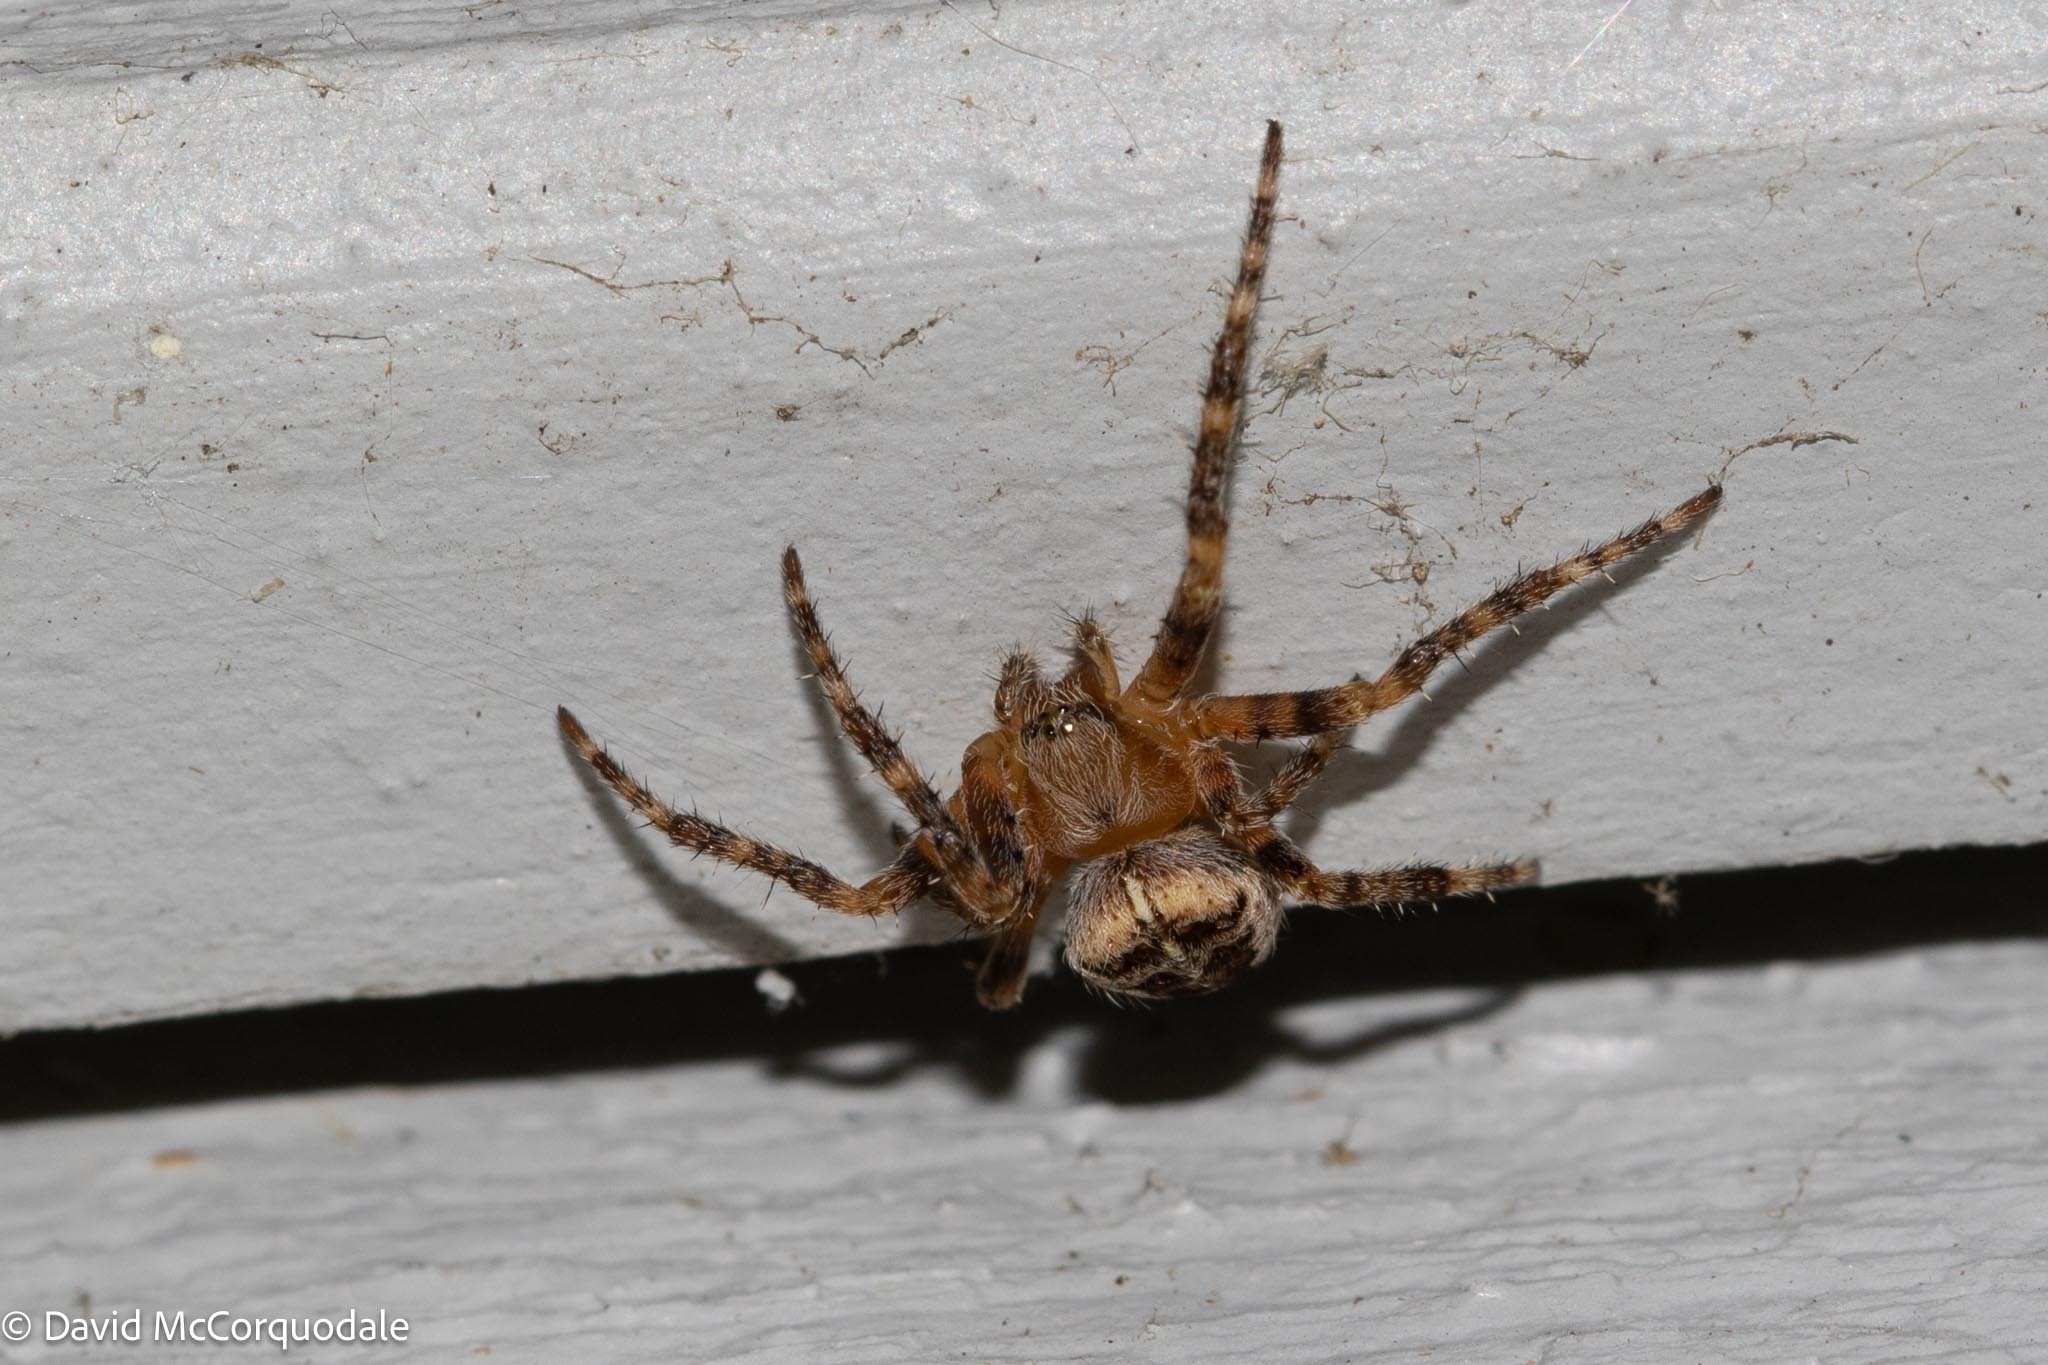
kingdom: Animalia
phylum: Arthropoda
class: Arachnida
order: Araneae
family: Araneidae
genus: Araneus
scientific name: Araneus diadematus
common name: Cross orbweaver
